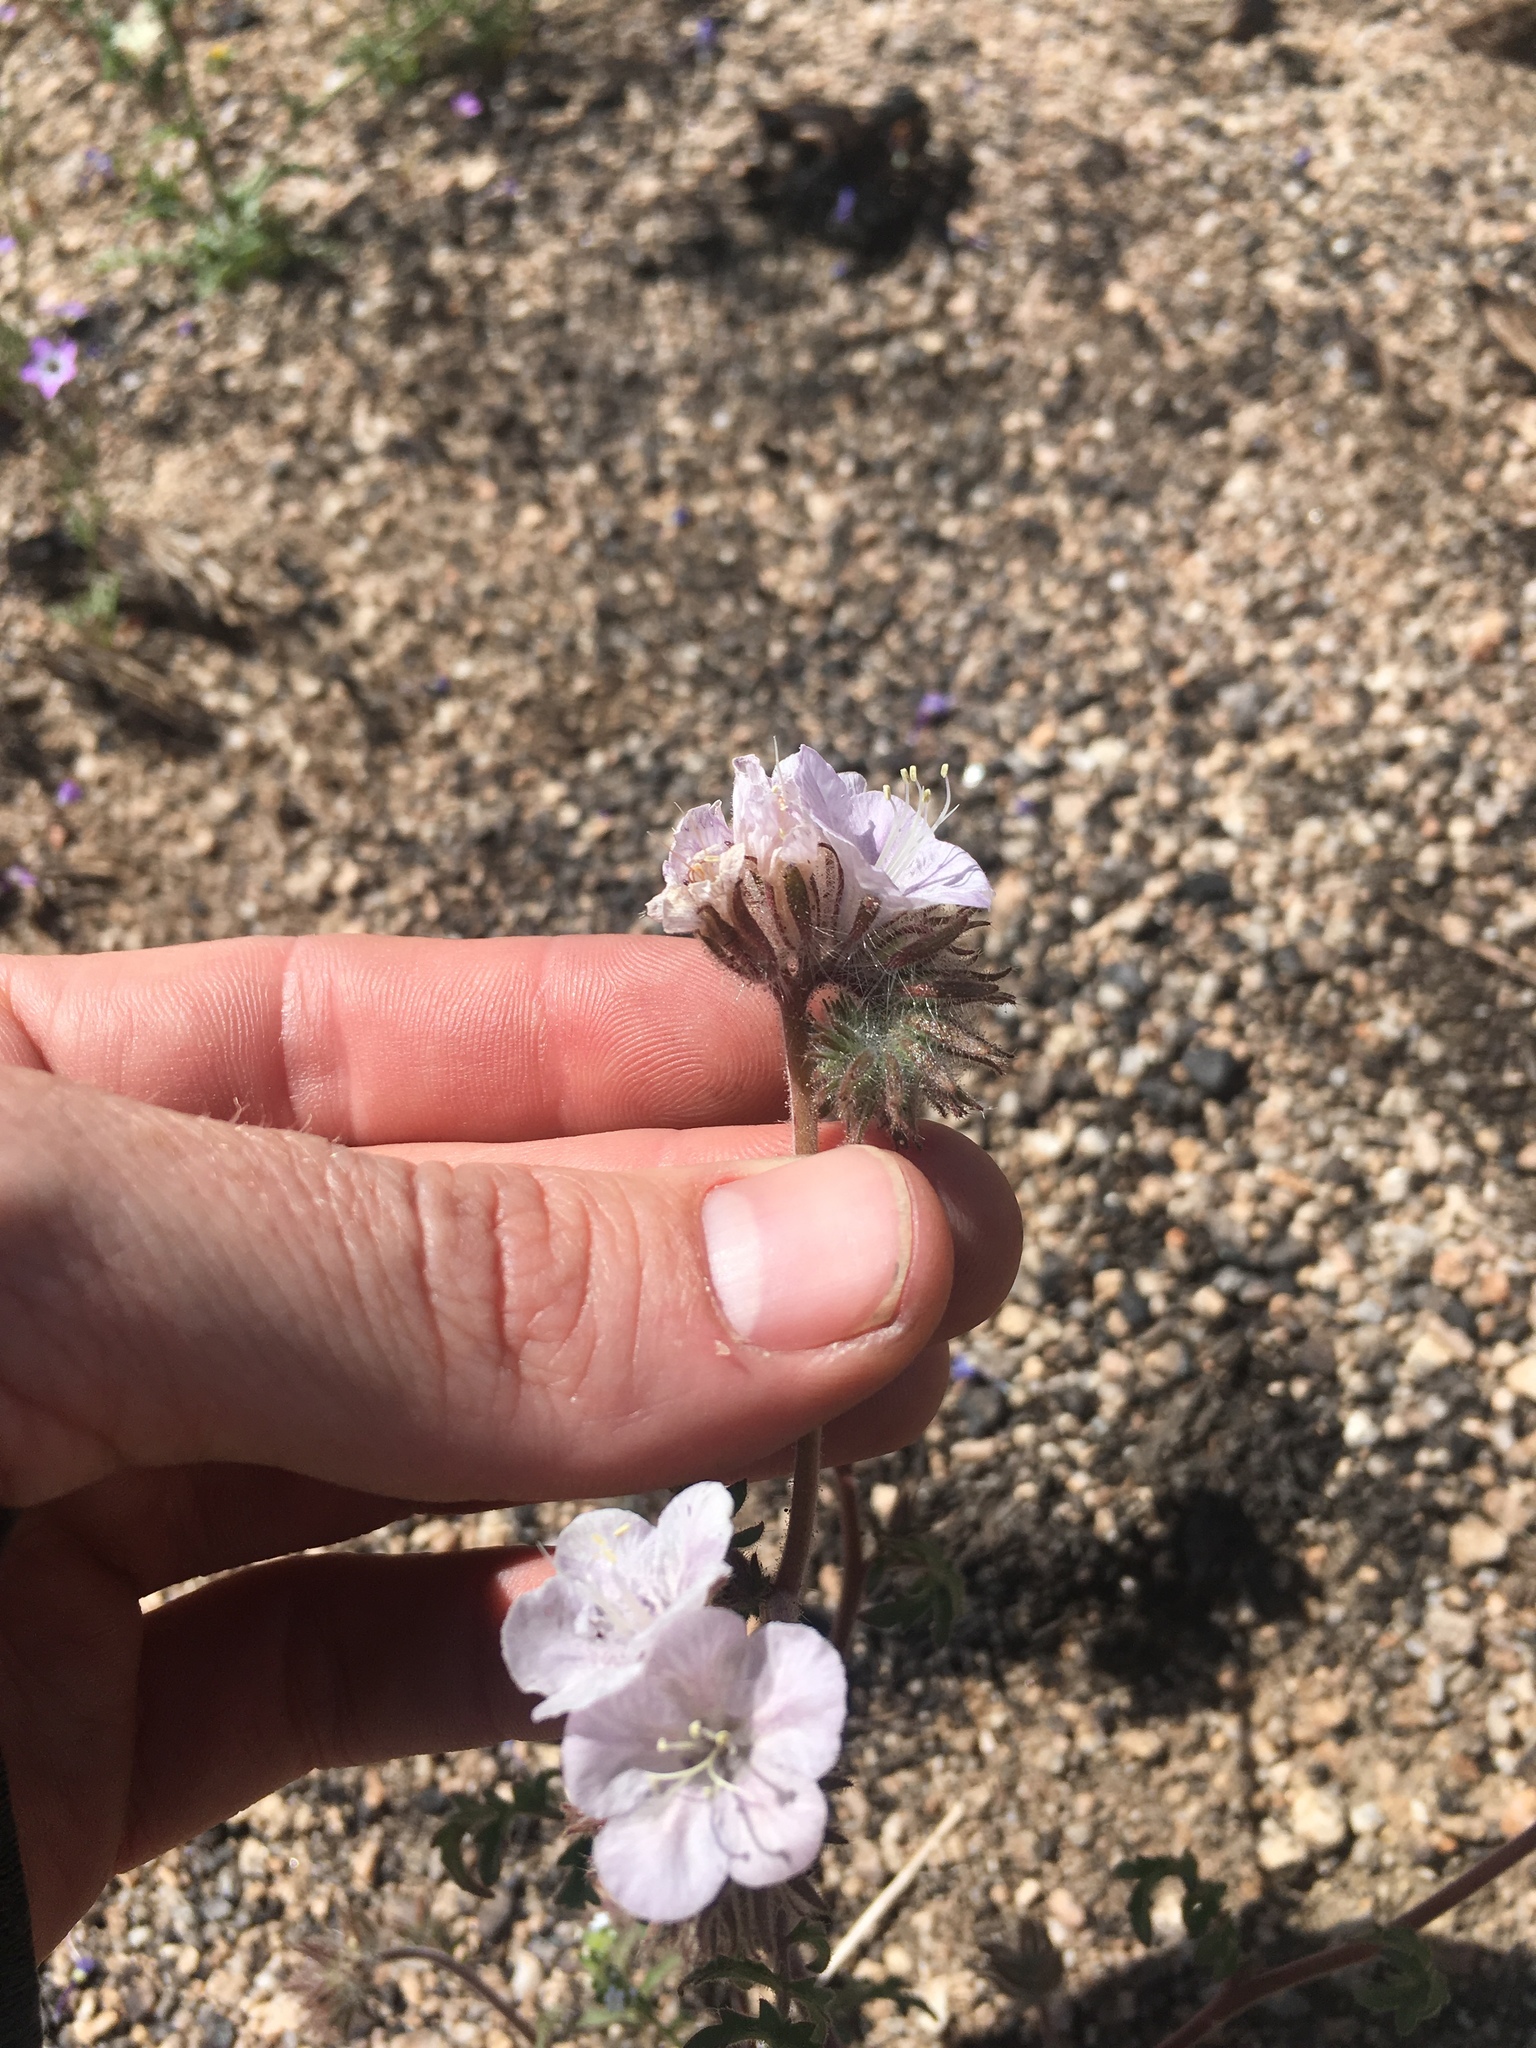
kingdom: Plantae
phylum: Tracheophyta
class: Magnoliopsida
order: Boraginales
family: Hydrophyllaceae
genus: Phacelia
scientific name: Phacelia vallis-mortae
